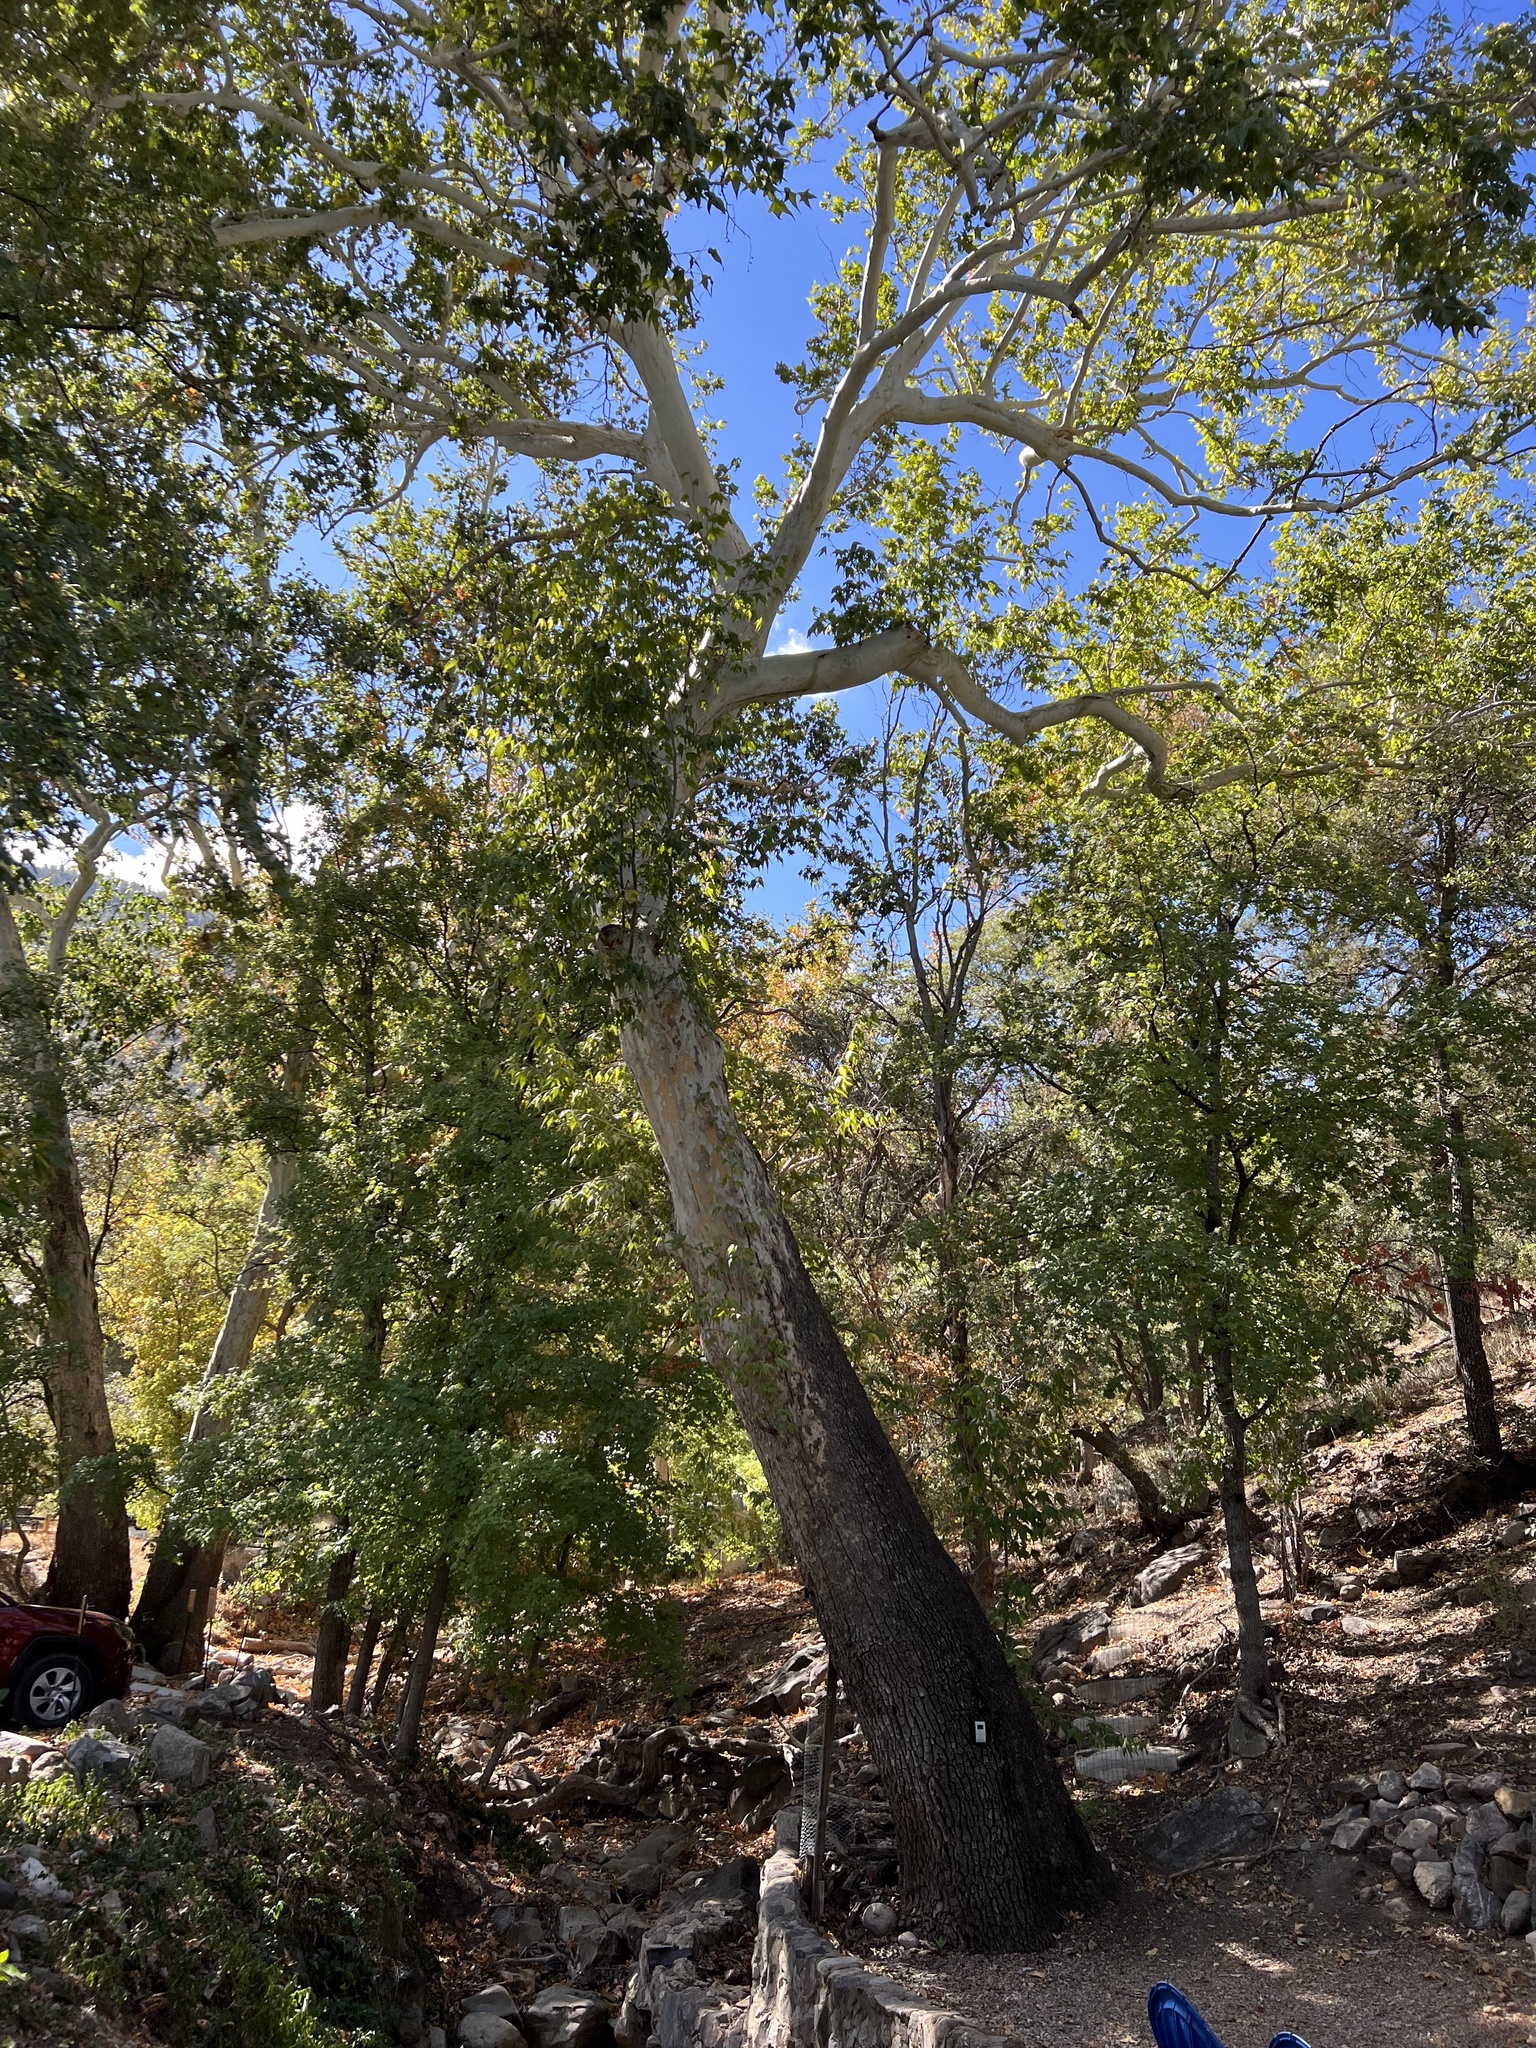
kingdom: Plantae
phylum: Tracheophyta
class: Magnoliopsida
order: Proteales
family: Platanaceae
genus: Platanus
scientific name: Platanus wrightii
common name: Arizona sycamore
